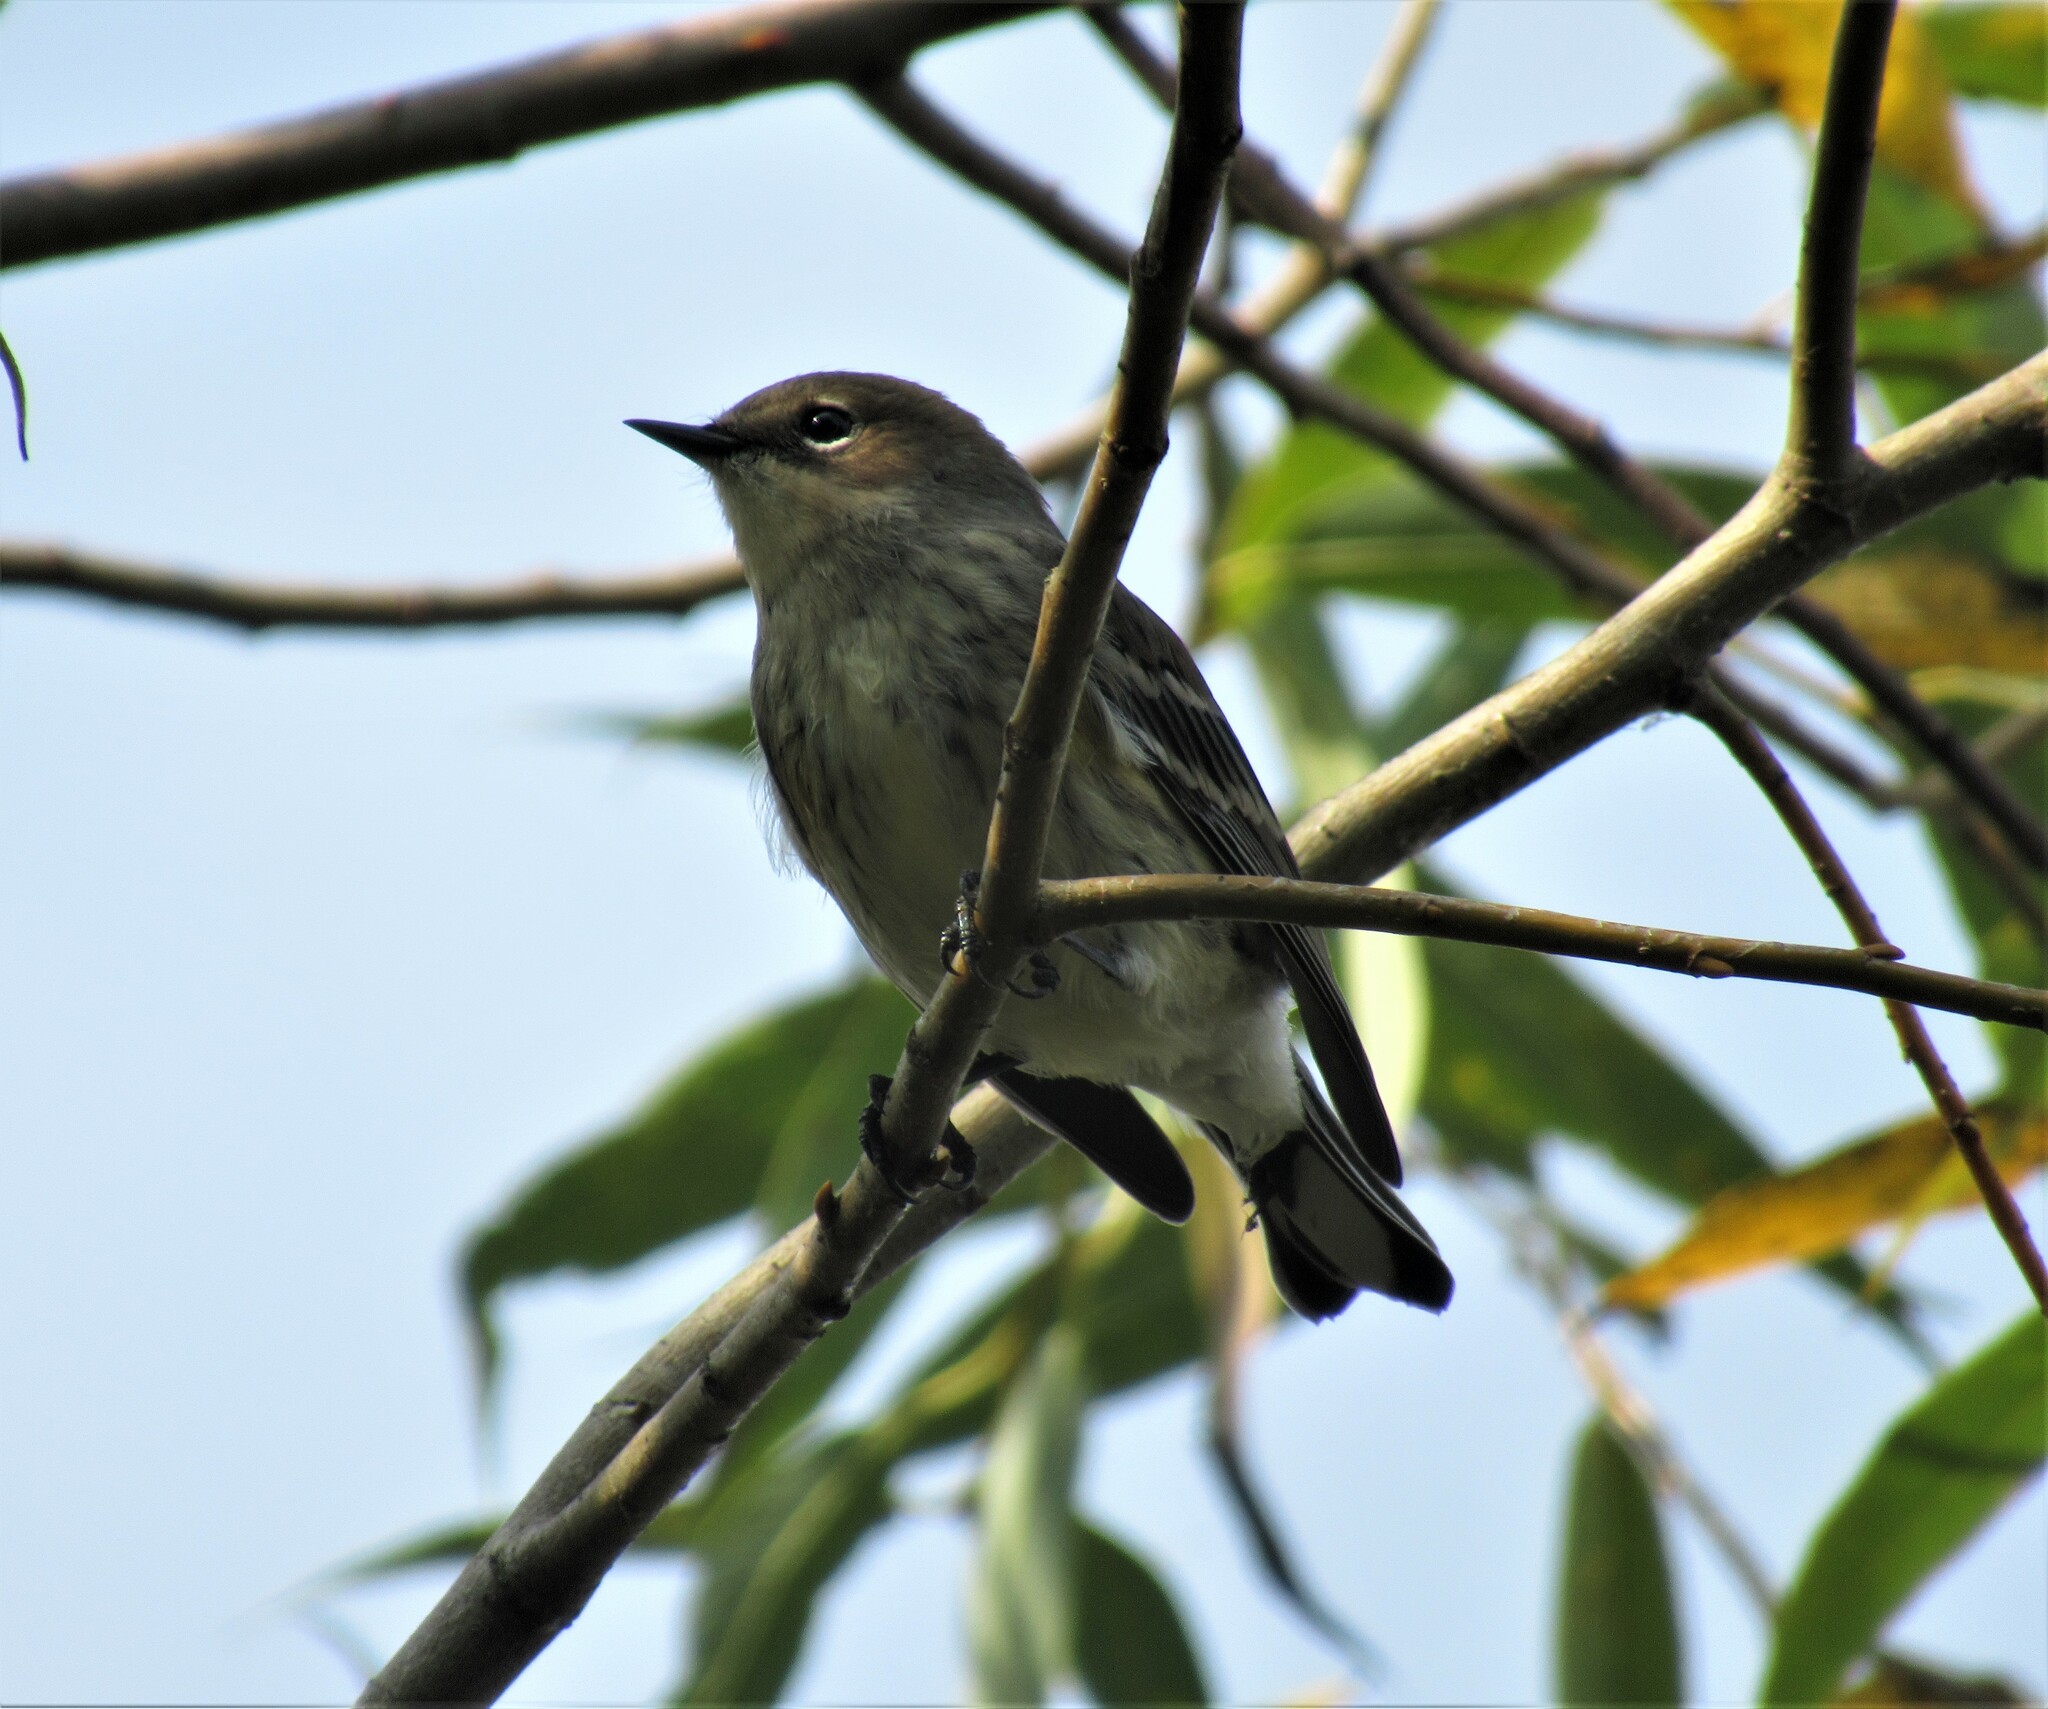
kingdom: Animalia
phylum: Chordata
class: Aves
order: Passeriformes
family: Parulidae
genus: Setophaga
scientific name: Setophaga coronata
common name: Myrtle warbler
